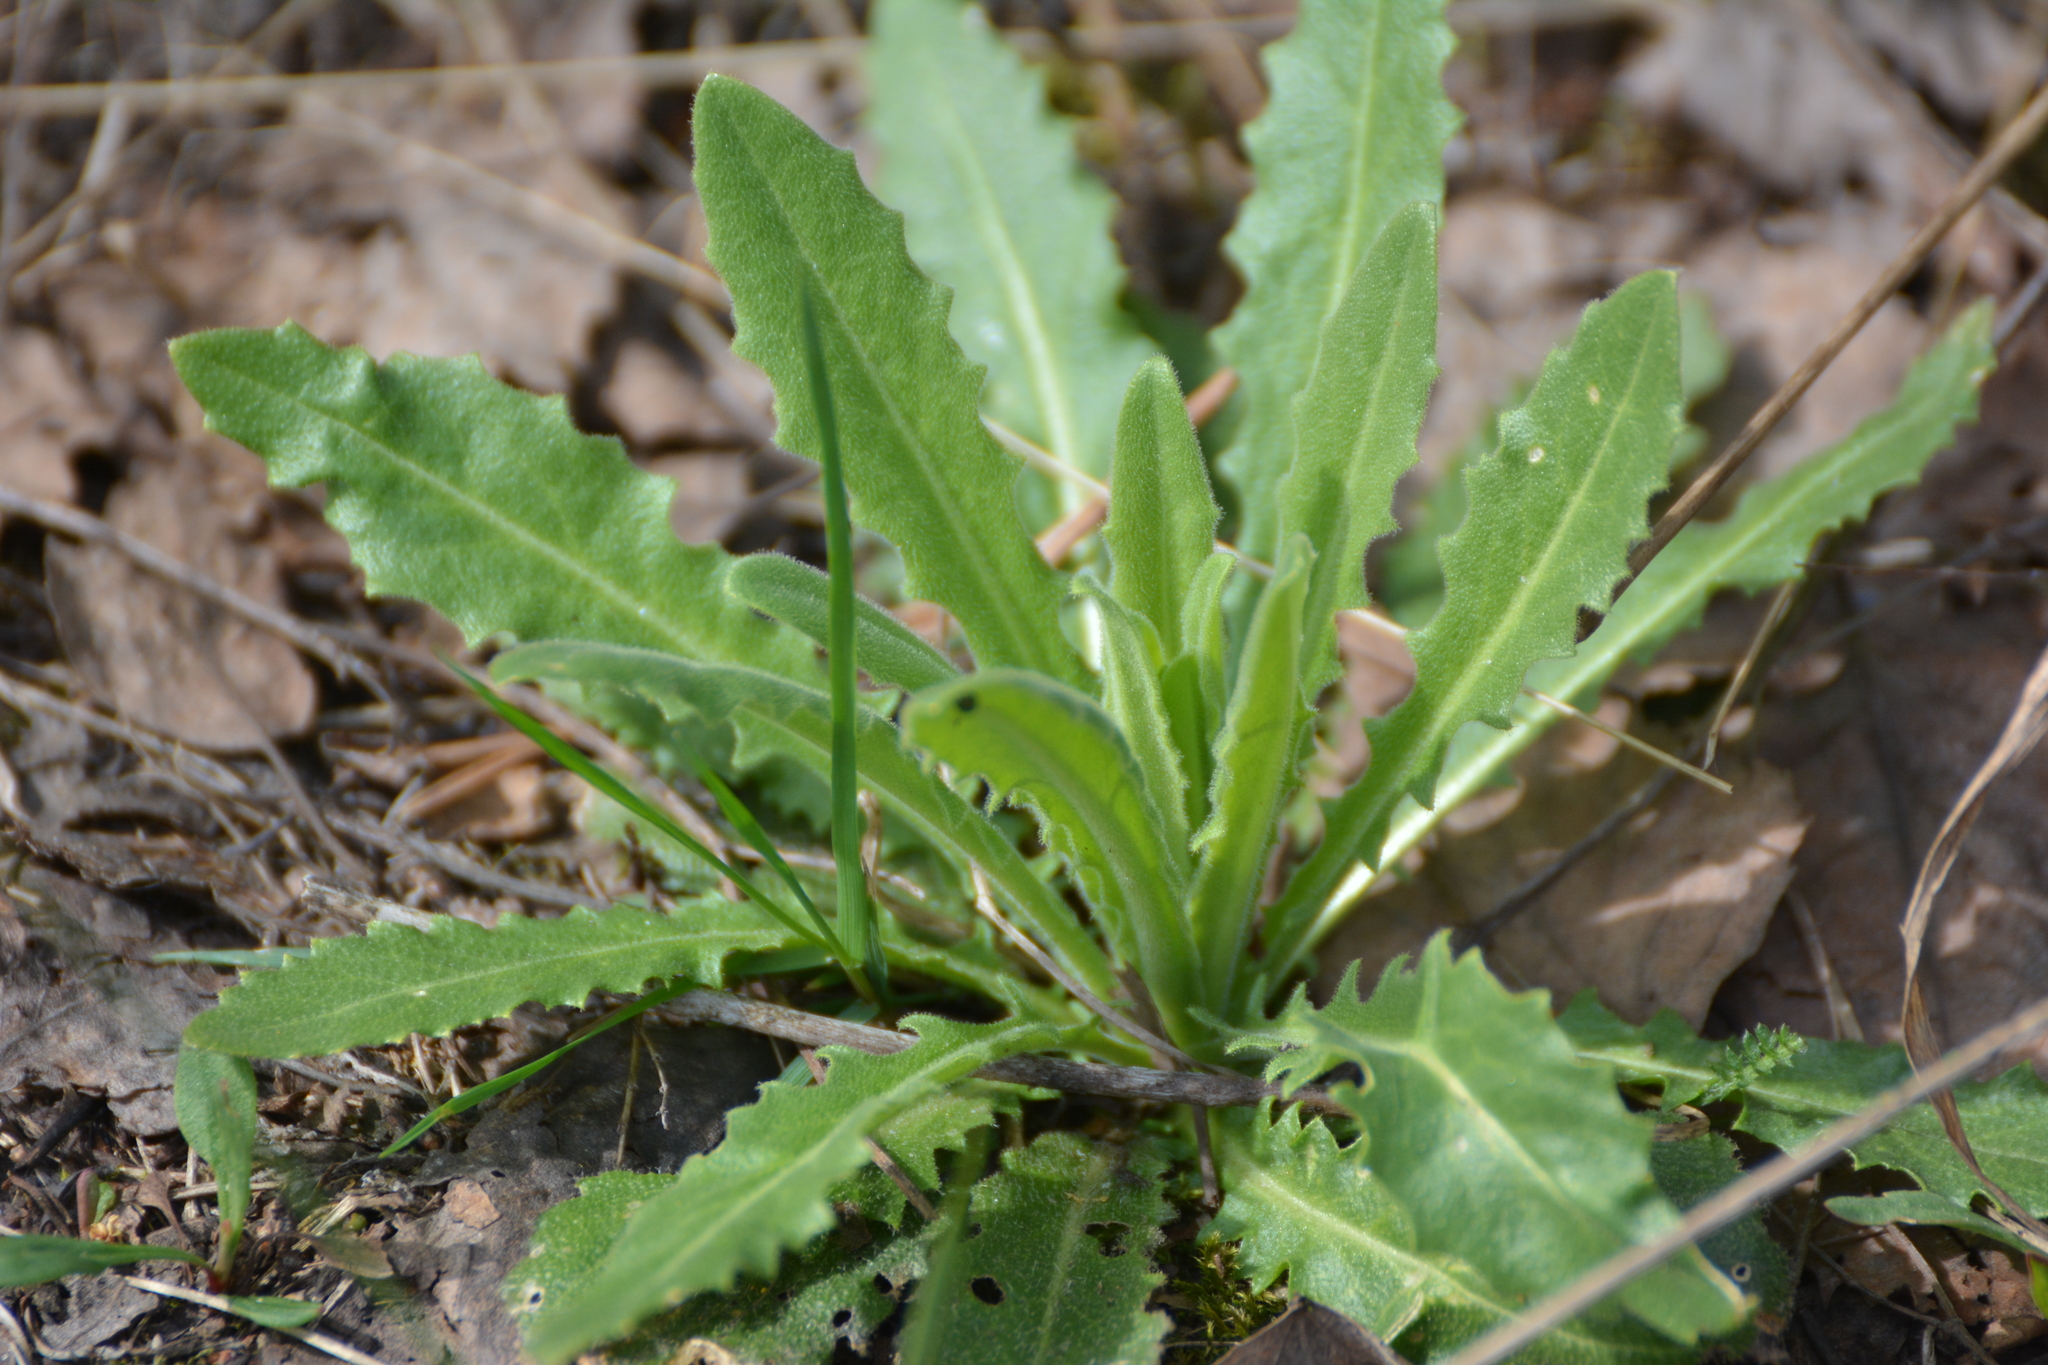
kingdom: Plantae
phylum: Tracheophyta
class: Magnoliopsida
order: Brassicales
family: Brassicaceae
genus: Turritis
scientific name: Turritis glabra
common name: Tower rockcress
